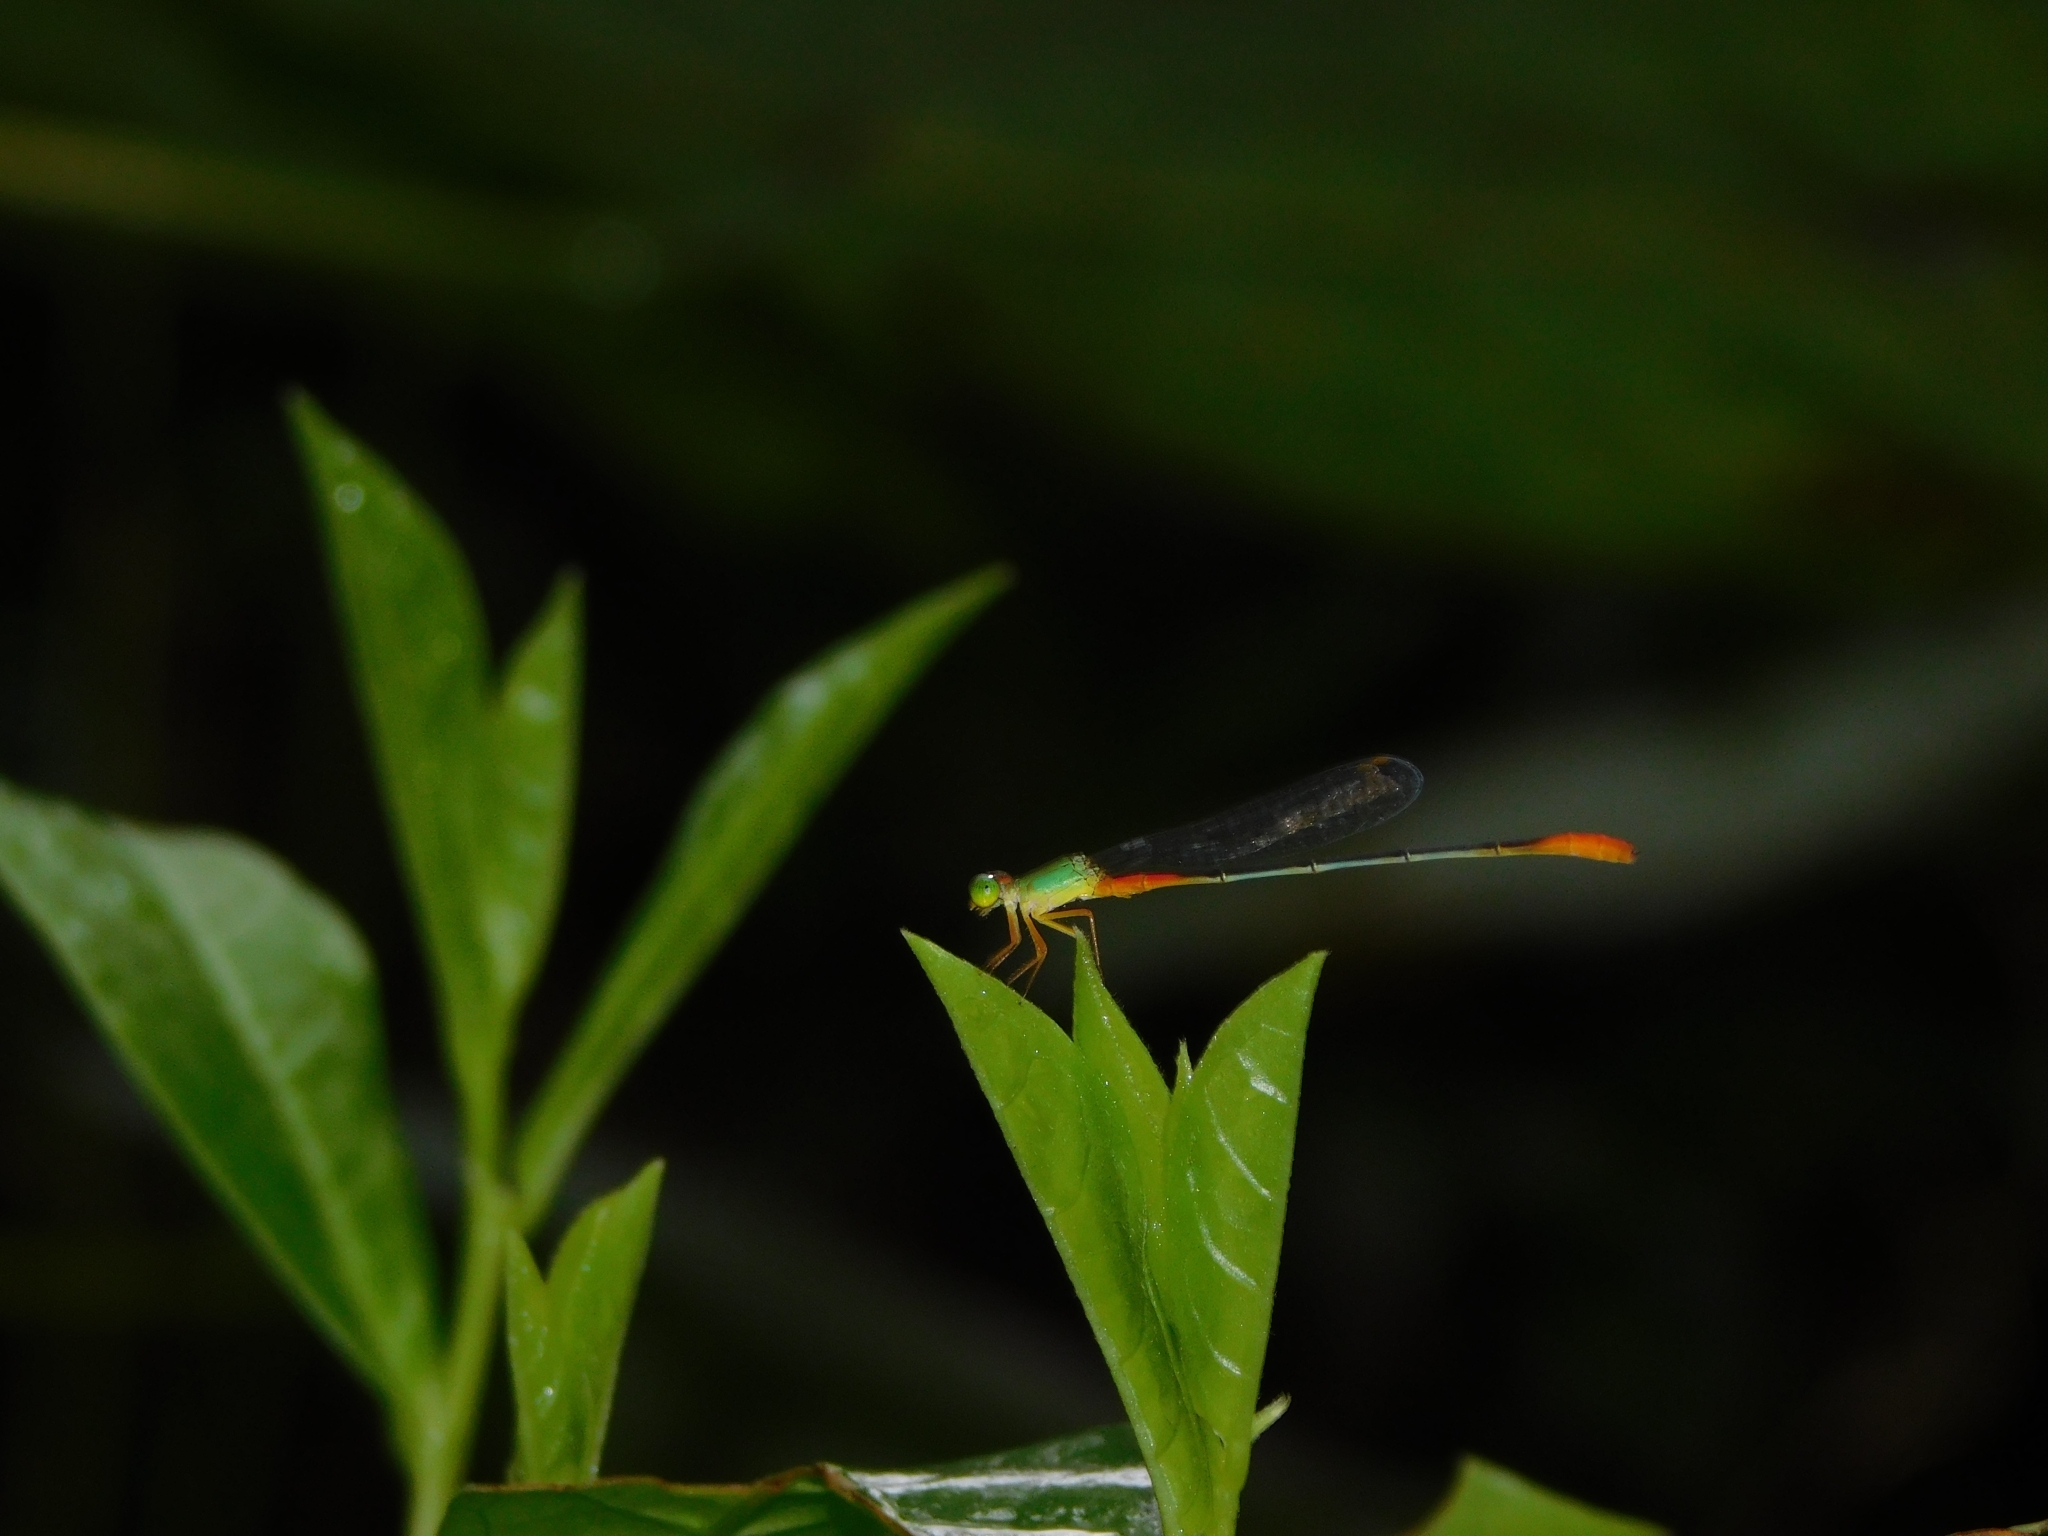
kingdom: Animalia
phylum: Arthropoda
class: Insecta
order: Odonata
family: Coenagrionidae
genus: Ceriagrion
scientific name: Ceriagrion cerinorubellum
